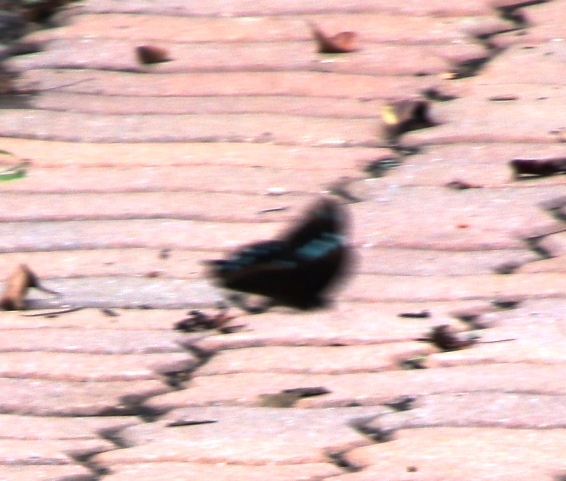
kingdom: Animalia
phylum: Arthropoda
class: Insecta
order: Lepidoptera
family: Papilionidae
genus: Papilio
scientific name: Papilio nireus
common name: Greenbanded swallowtail
